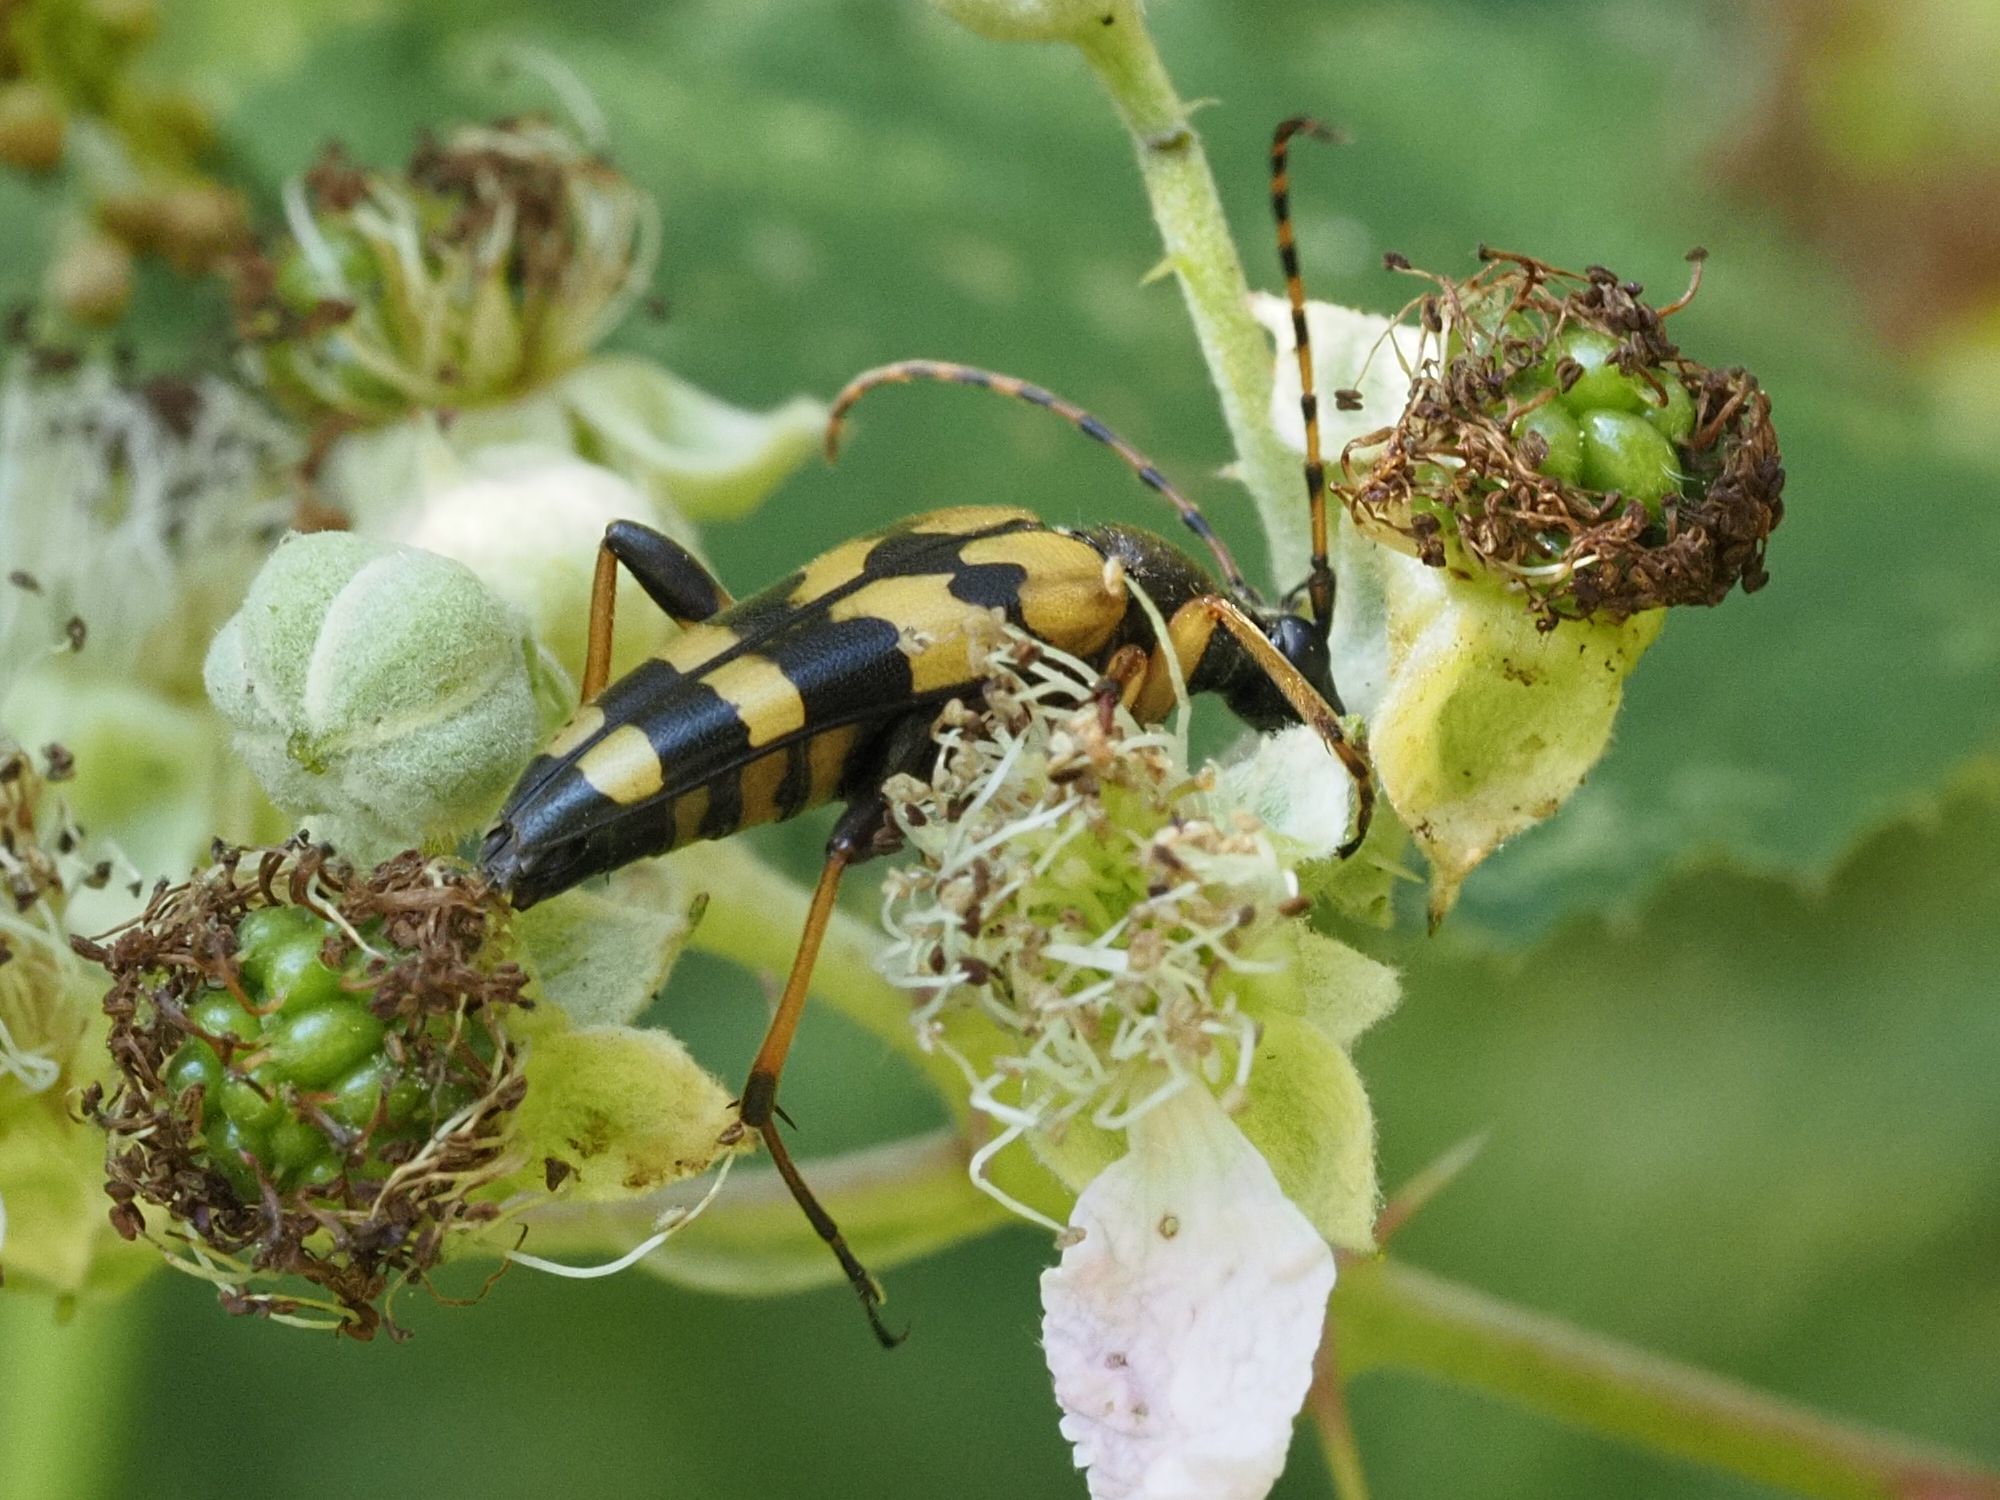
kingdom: Animalia
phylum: Arthropoda
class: Insecta
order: Coleoptera
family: Cerambycidae
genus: Rutpela
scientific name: Rutpela maculata
